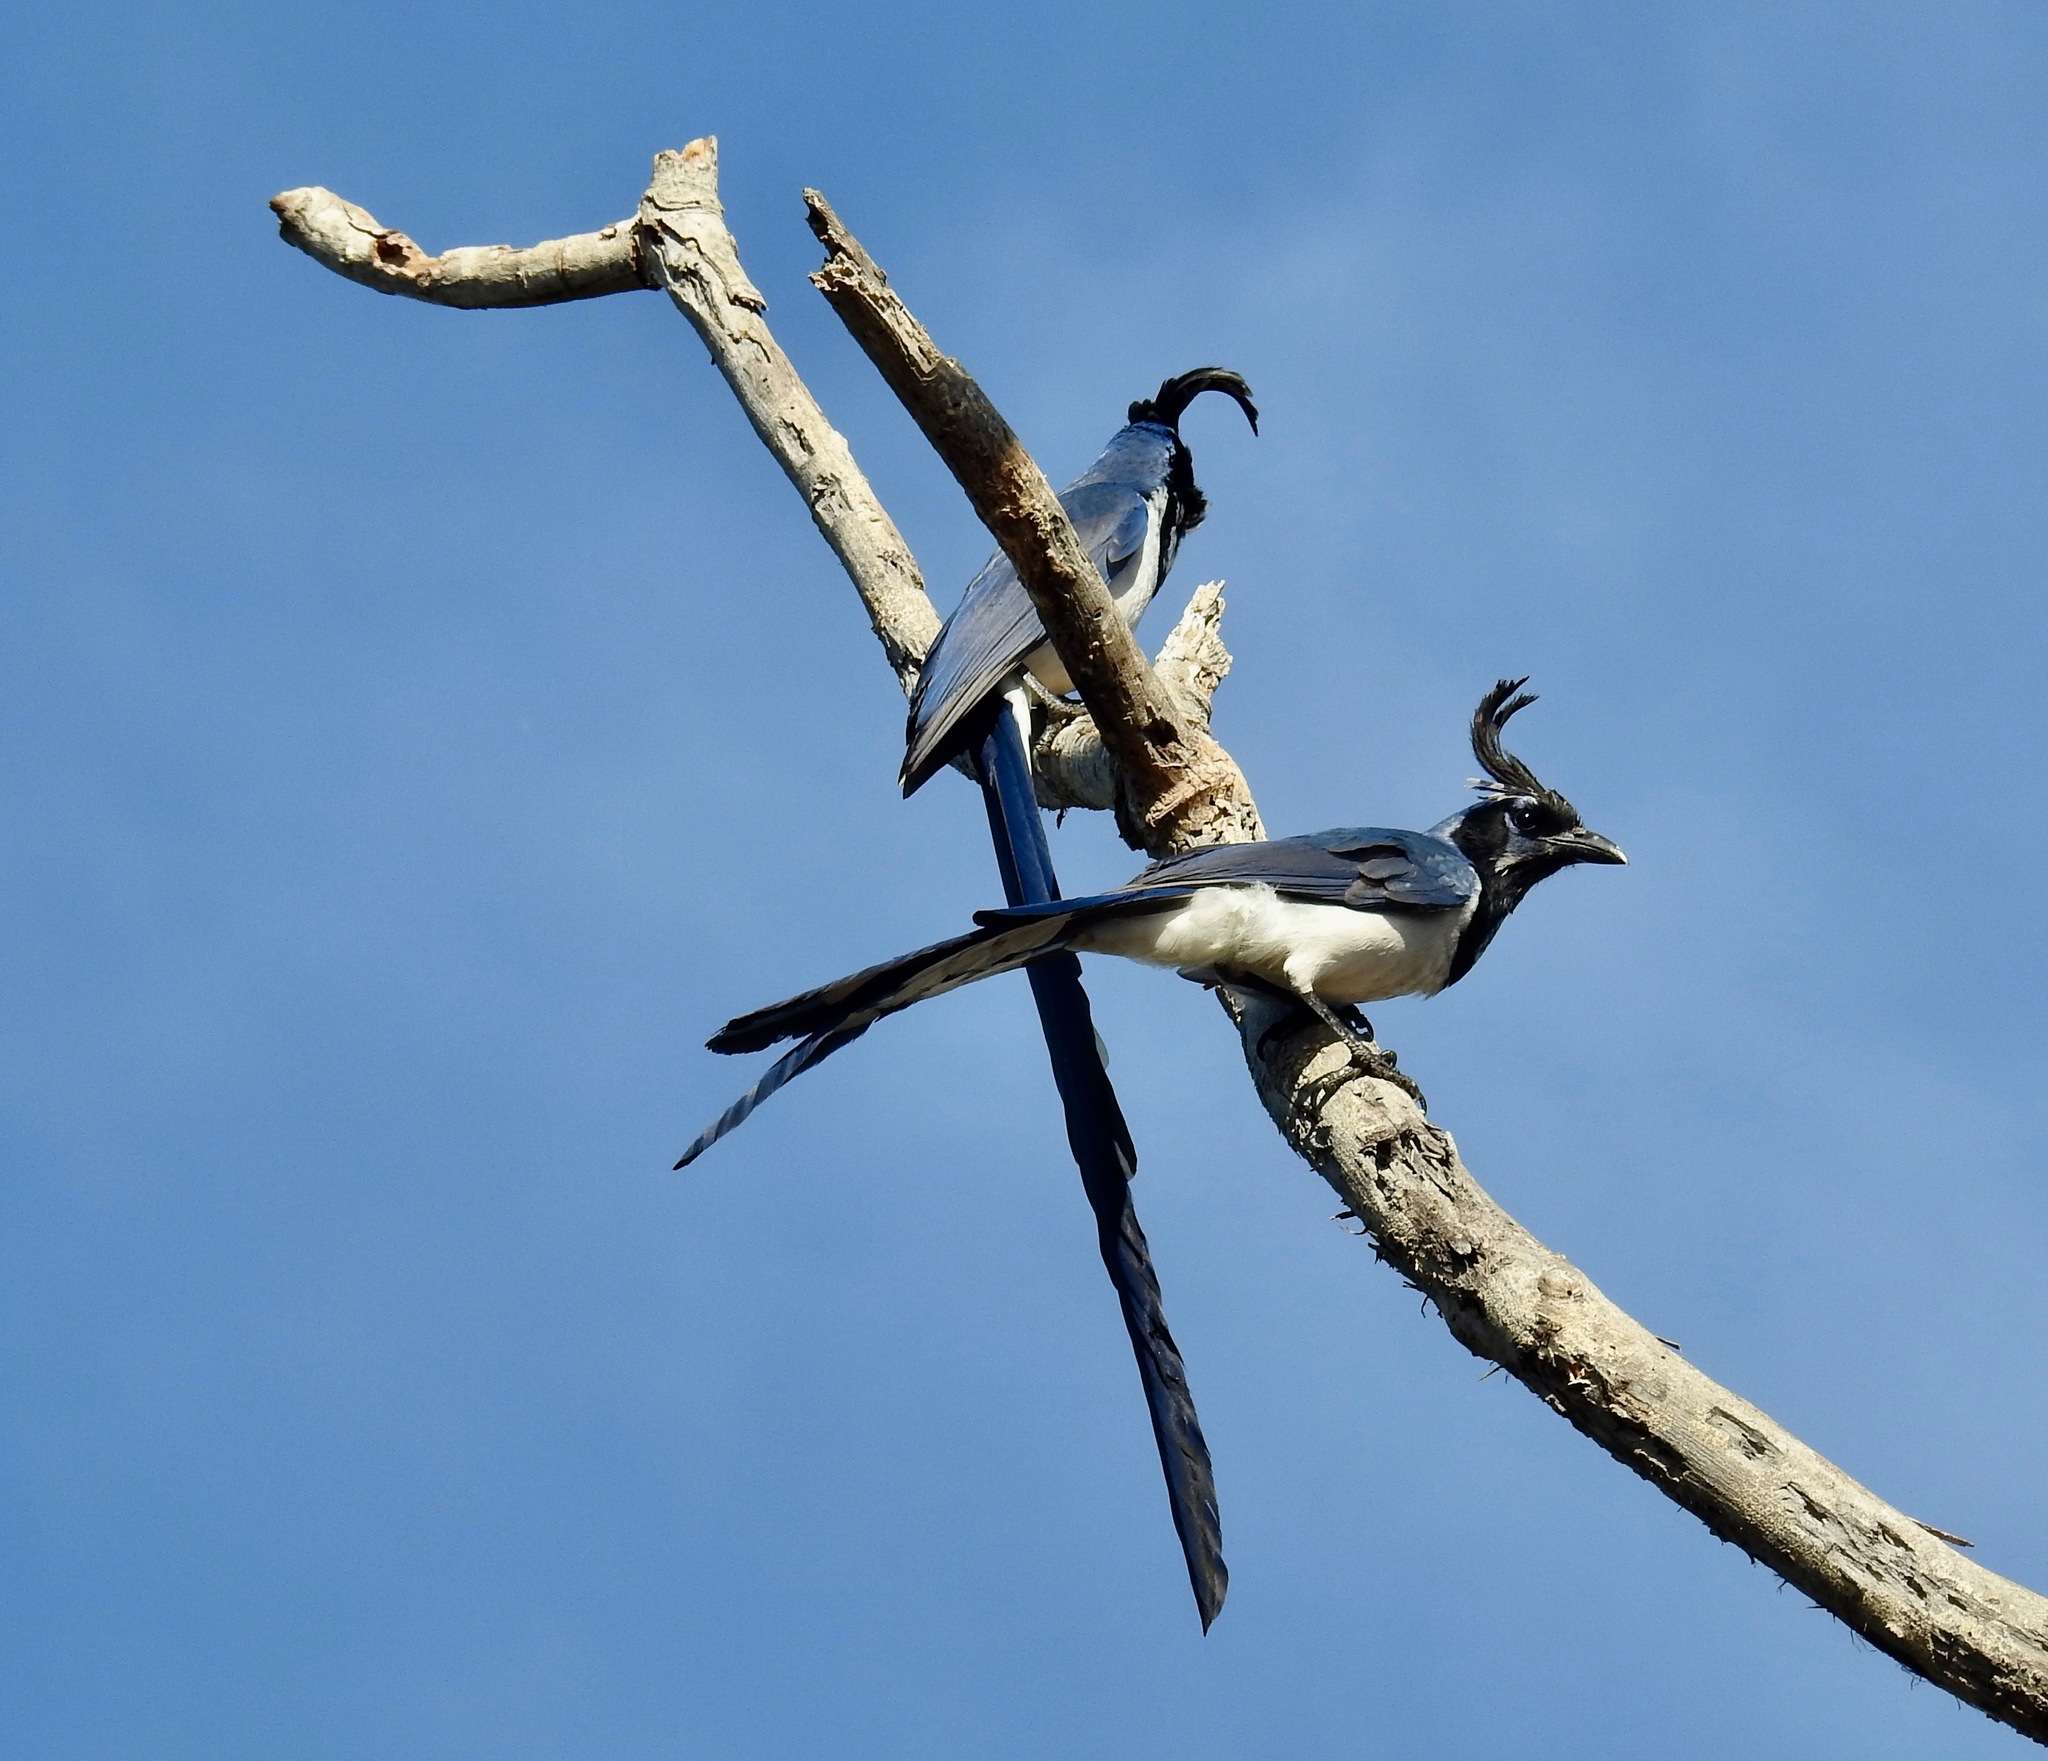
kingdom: Animalia
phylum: Chordata
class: Aves
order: Passeriformes
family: Corvidae
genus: Calocitta
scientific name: Calocitta colliei
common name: Black-throated magpie-jay
